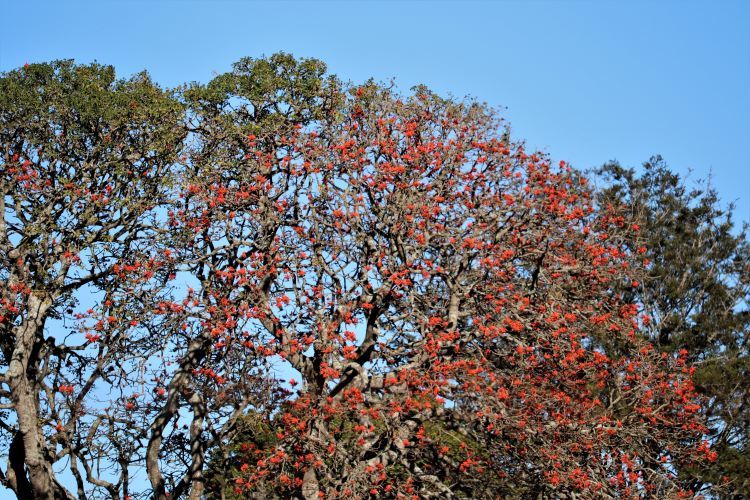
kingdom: Plantae
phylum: Tracheophyta
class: Magnoliopsida
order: Fabales
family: Fabaceae
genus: Erythrina
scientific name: Erythrina caffra
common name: Coast coral tree
